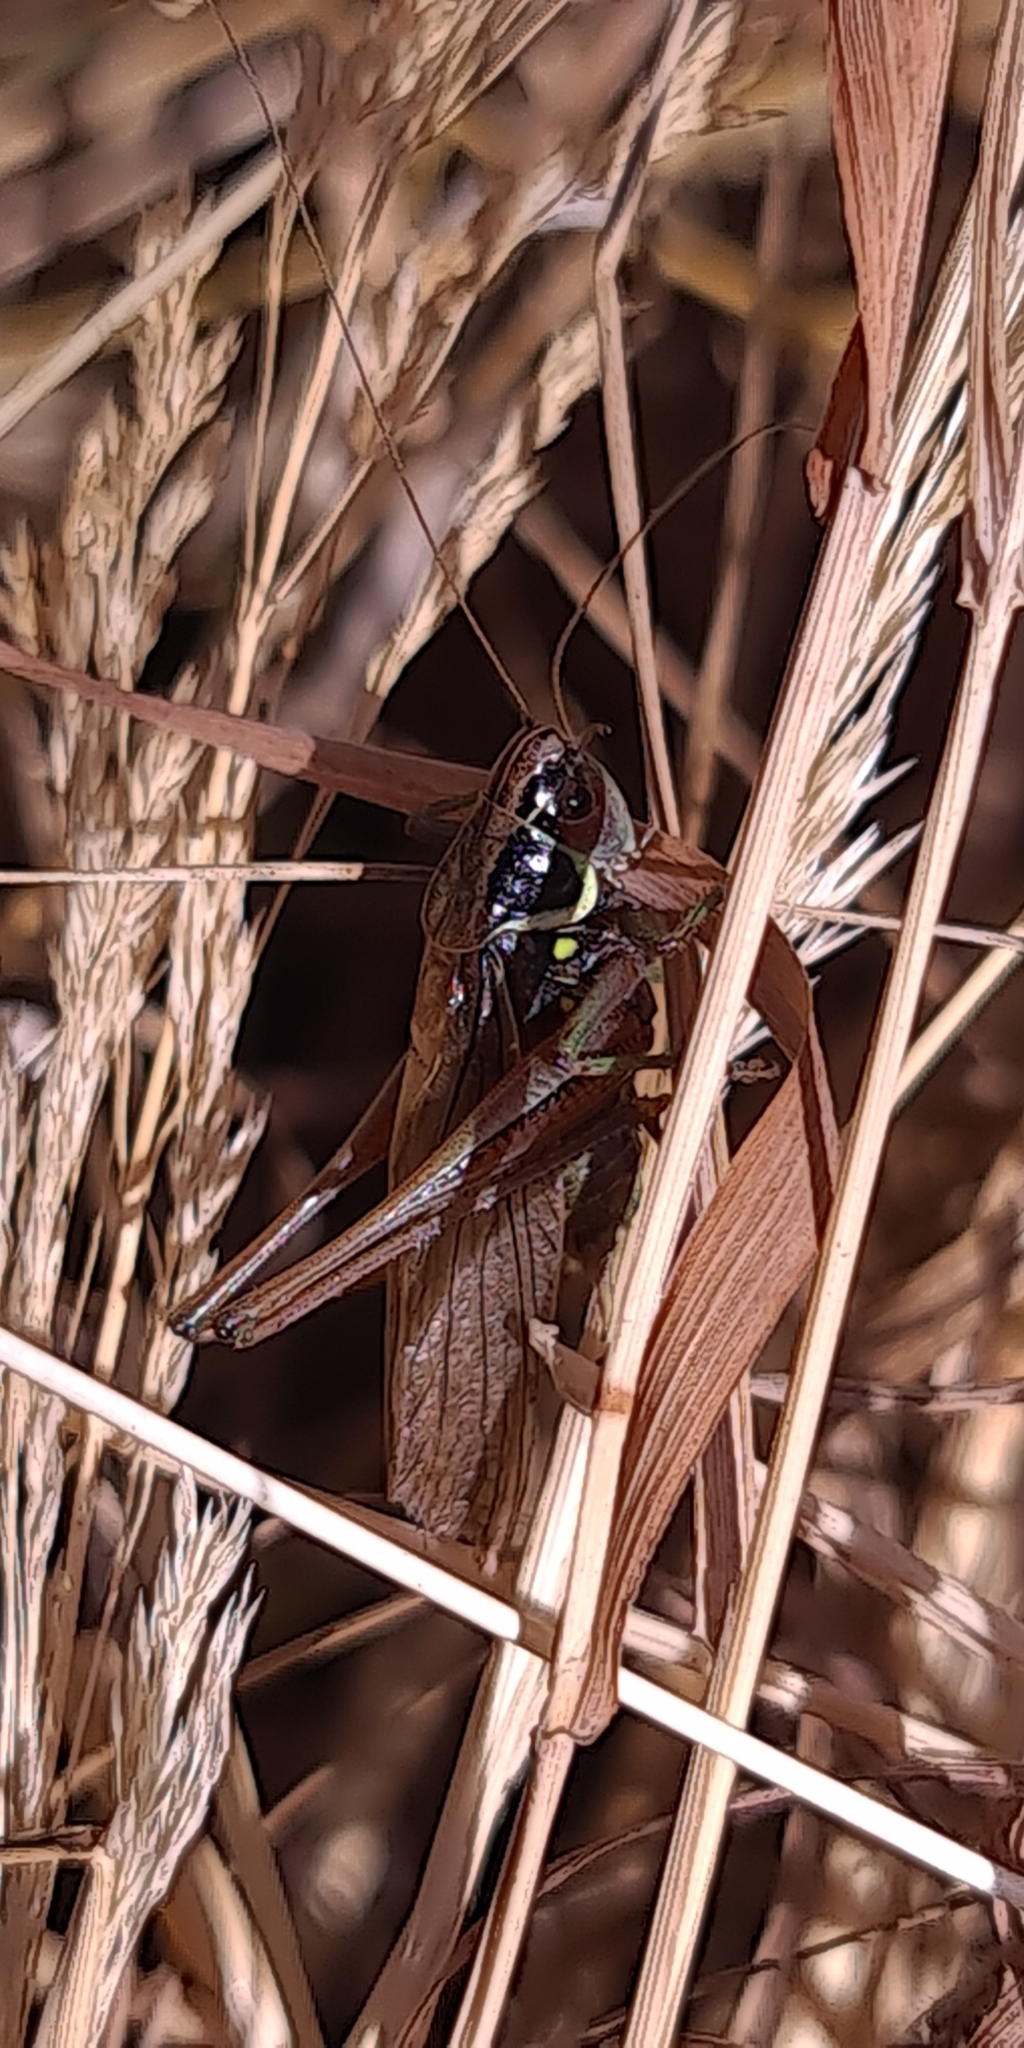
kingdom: Animalia
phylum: Arthropoda
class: Insecta
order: Orthoptera
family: Tettigoniidae
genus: Roeseliana
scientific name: Roeseliana roeselii
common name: Roesel's bush cricket
